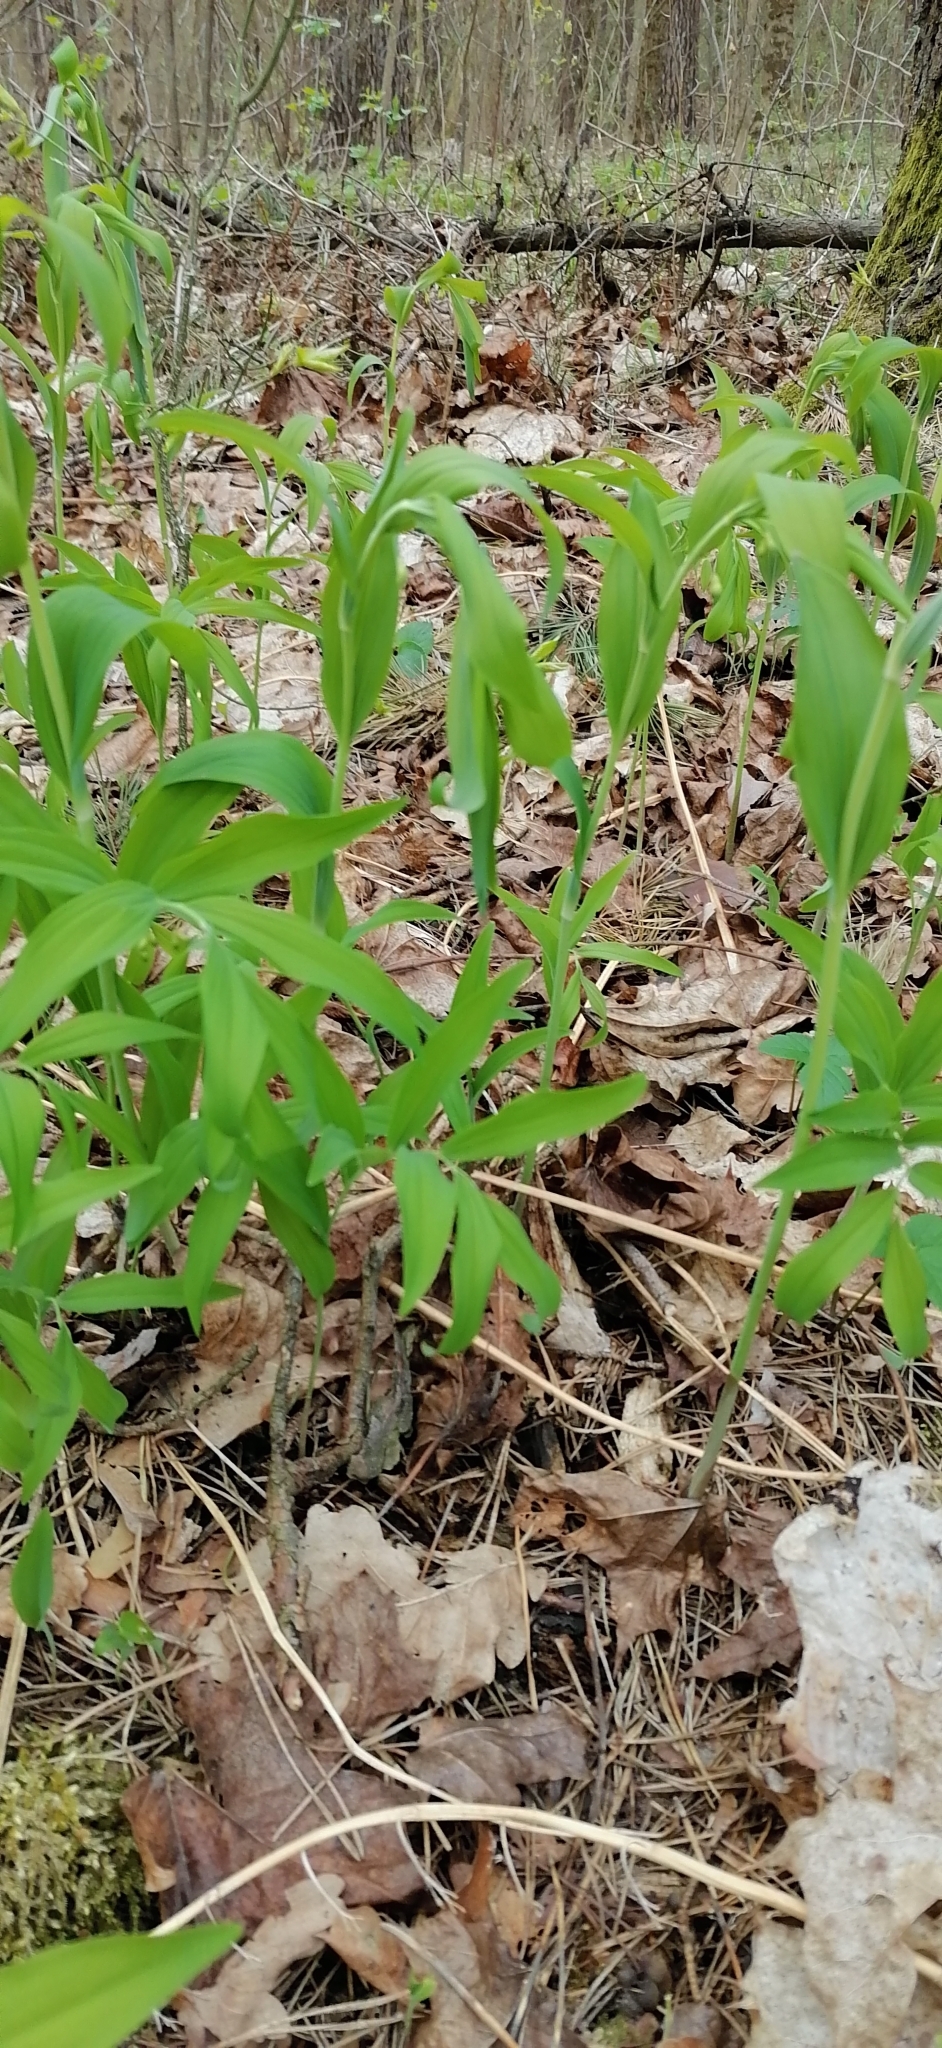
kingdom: Plantae
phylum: Tracheophyta
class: Liliopsida
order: Asparagales
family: Asparagaceae
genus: Polygonatum
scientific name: Polygonatum multiflorum
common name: Solomon's-seal
